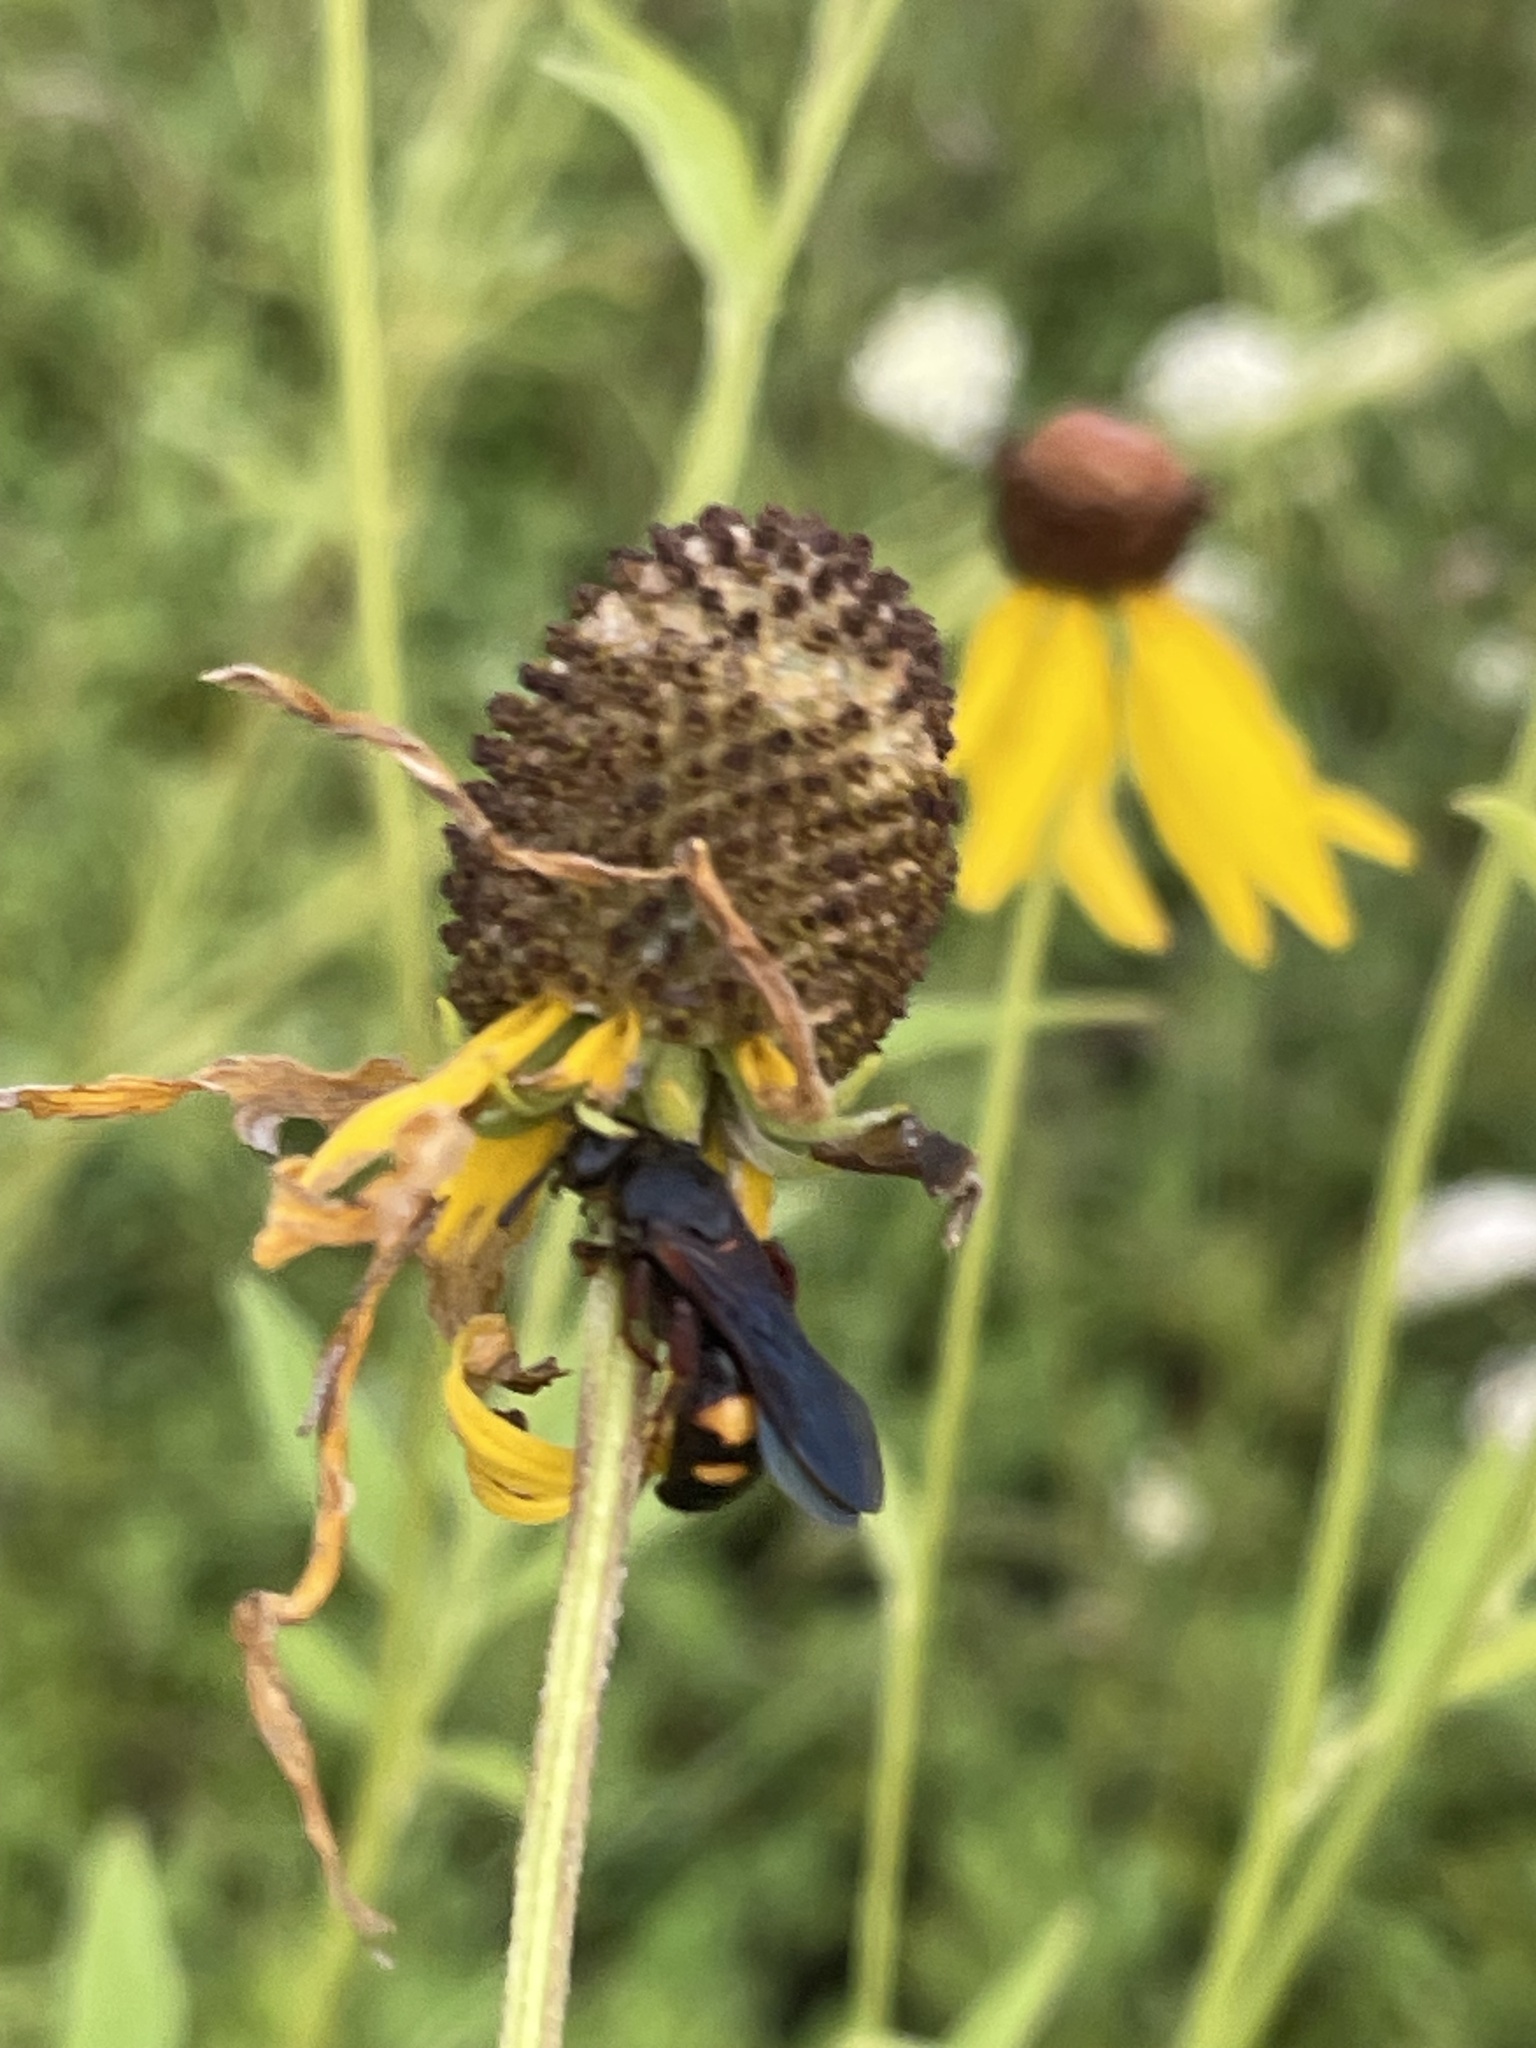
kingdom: Animalia
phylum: Arthropoda
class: Insecta
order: Hymenoptera
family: Scoliidae
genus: Scolia
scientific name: Scolia nobilitata
